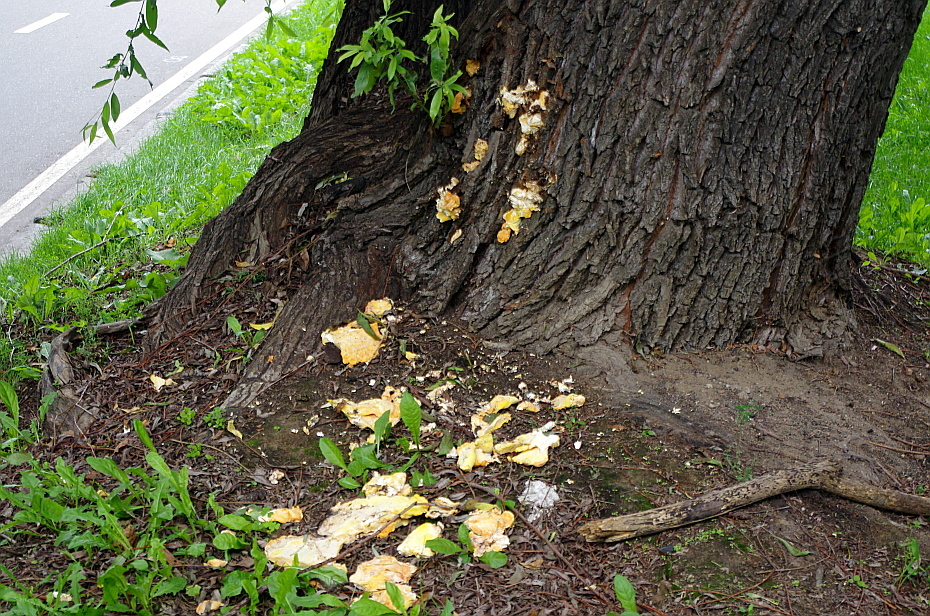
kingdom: Fungi
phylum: Basidiomycota
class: Agaricomycetes
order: Polyporales
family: Laetiporaceae
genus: Laetiporus
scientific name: Laetiporus sulphureus
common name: Chicken of the woods
